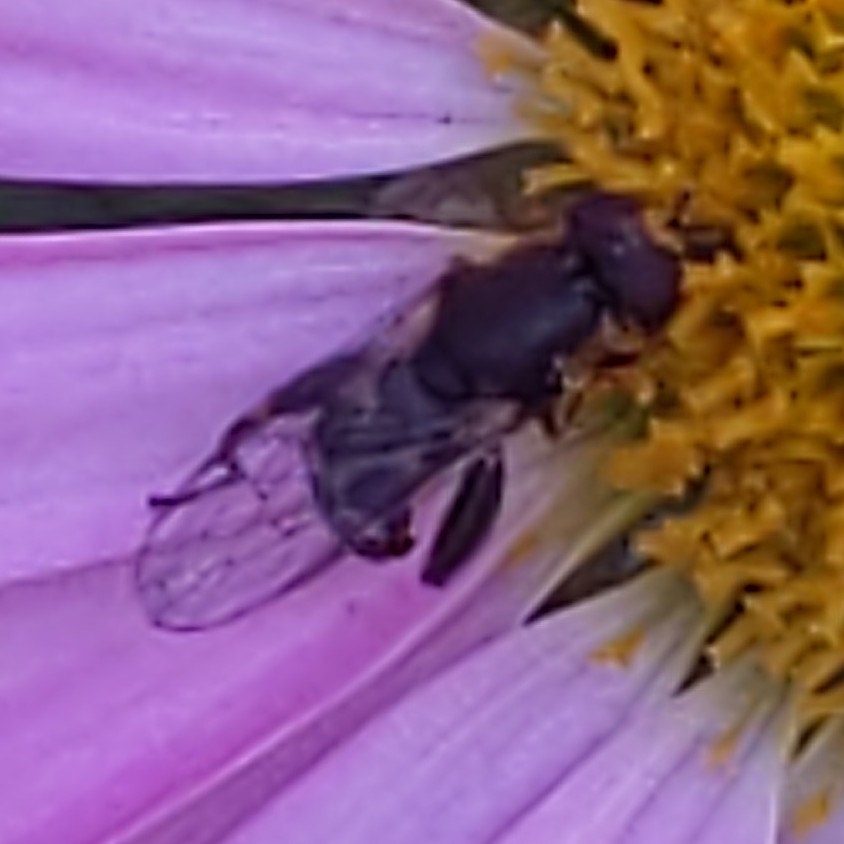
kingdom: Animalia
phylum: Arthropoda
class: Insecta
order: Diptera
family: Syrphidae
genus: Syritta
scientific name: Syritta pipiens
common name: Hover fly
